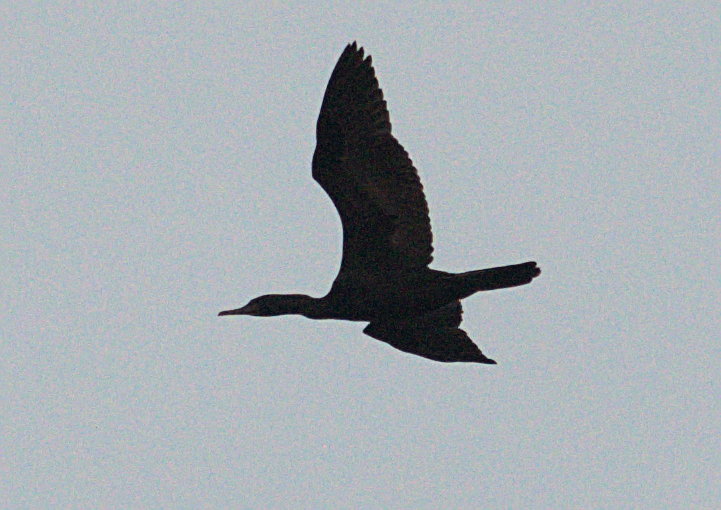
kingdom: Animalia
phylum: Chordata
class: Aves
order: Suliformes
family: Phalacrocoracidae
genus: Phalacrocorax
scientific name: Phalacrocorax fuscicollis
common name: Indian cormorant
